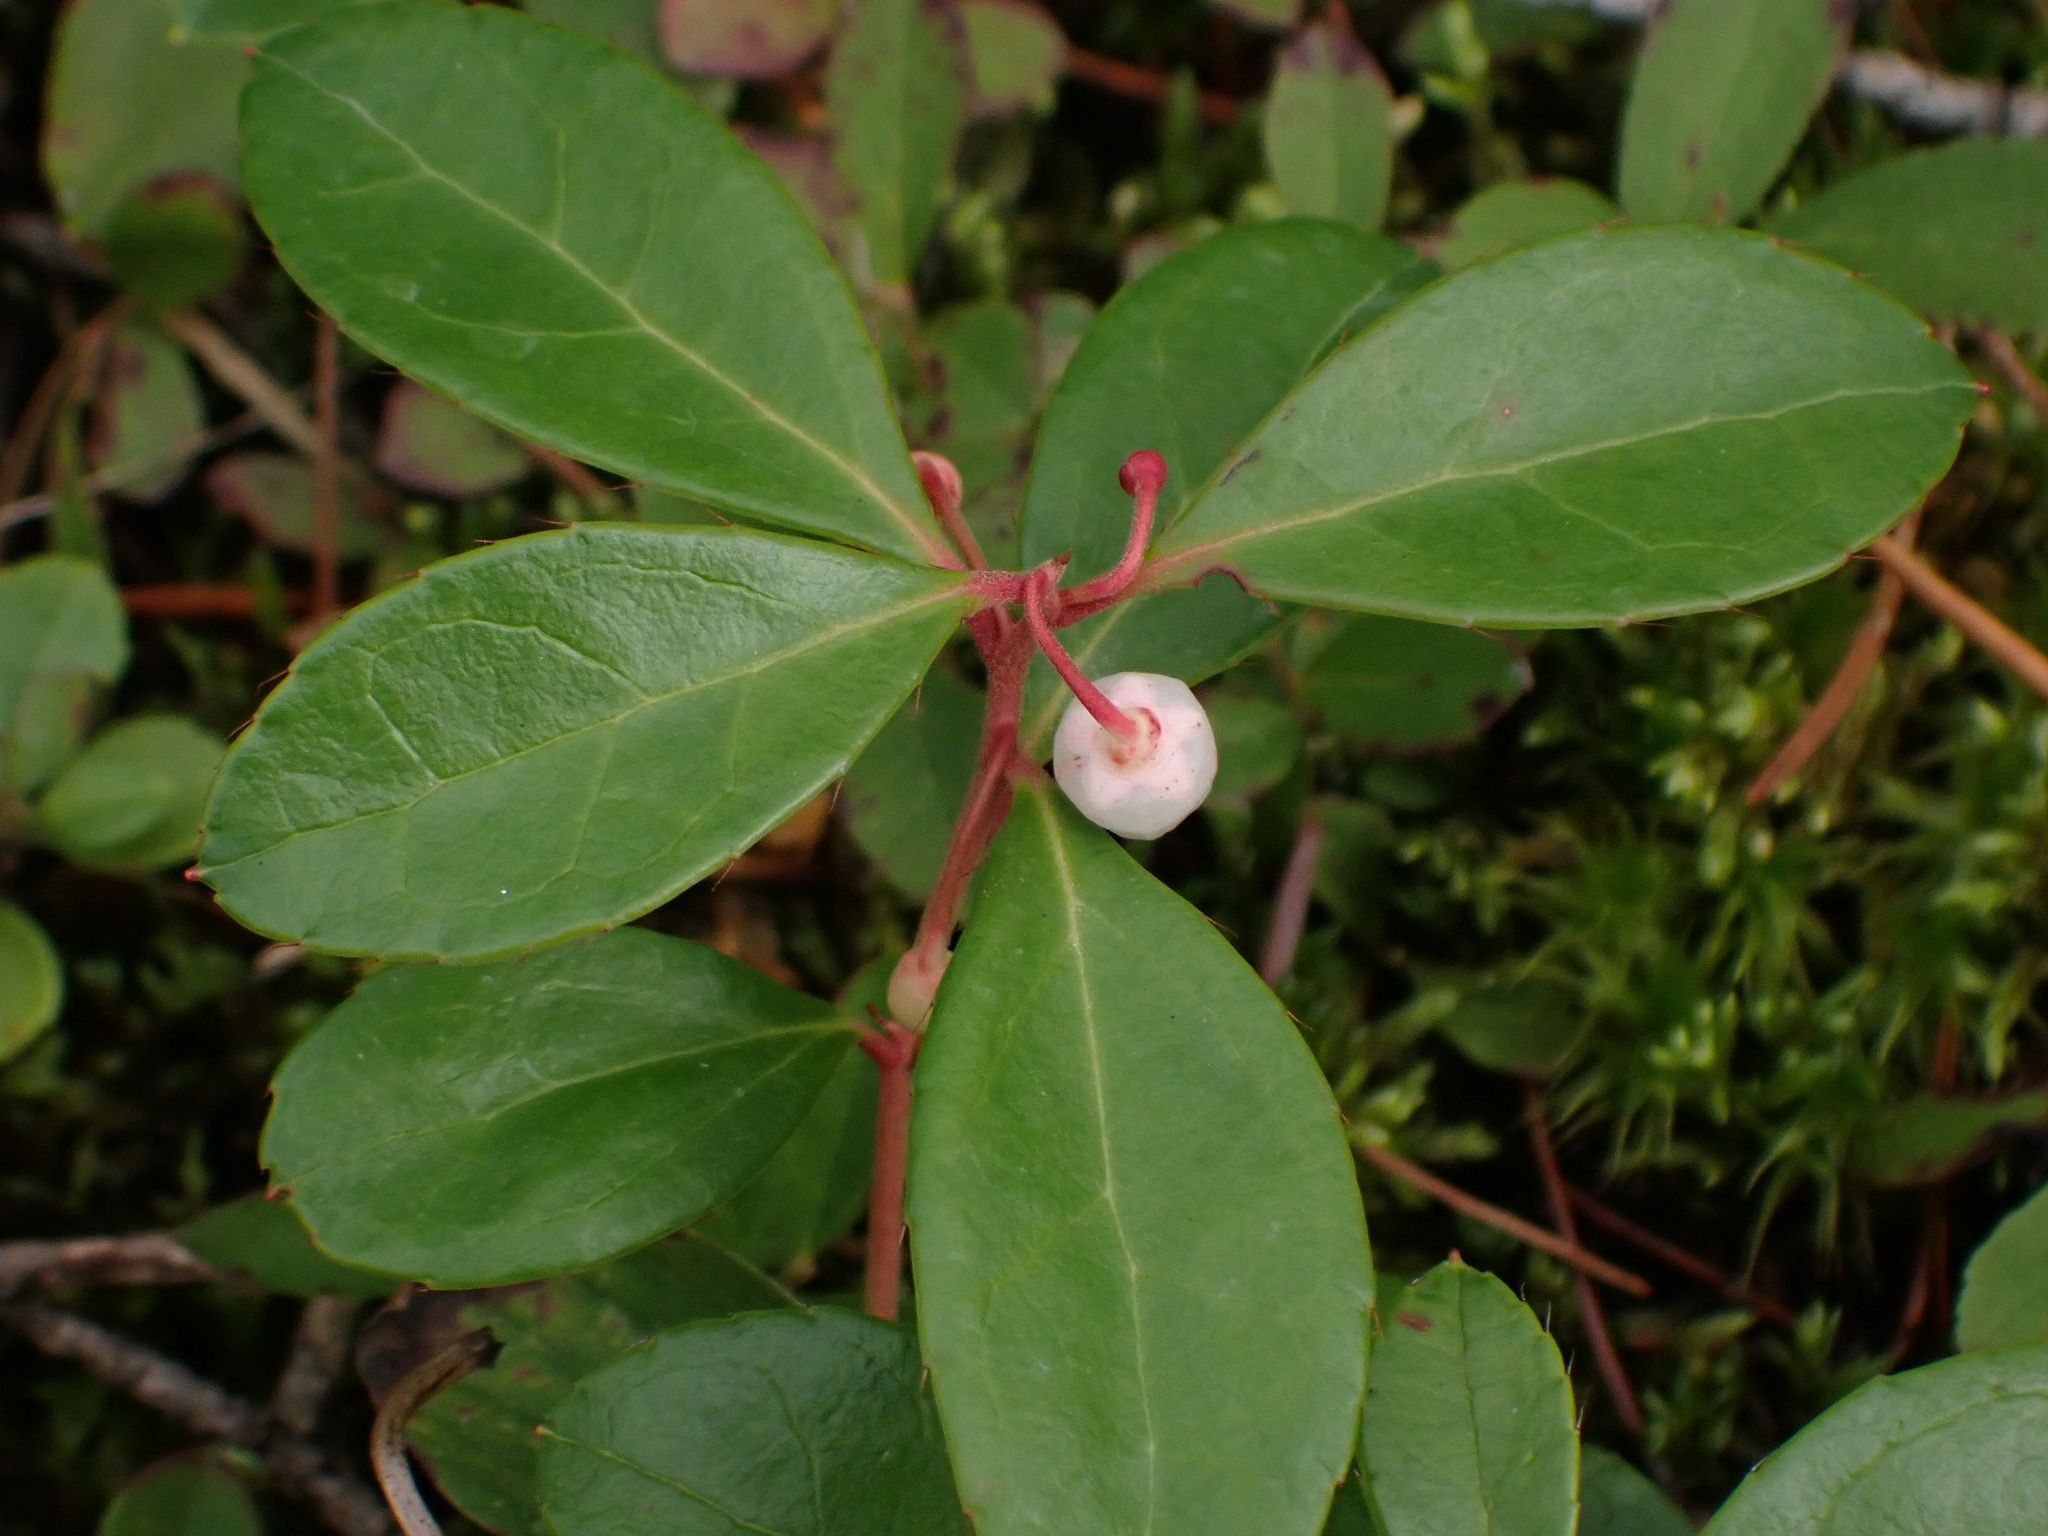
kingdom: Plantae
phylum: Tracheophyta
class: Magnoliopsida
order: Ericales
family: Ericaceae
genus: Gaultheria
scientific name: Gaultheria procumbens
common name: Checkerberry
